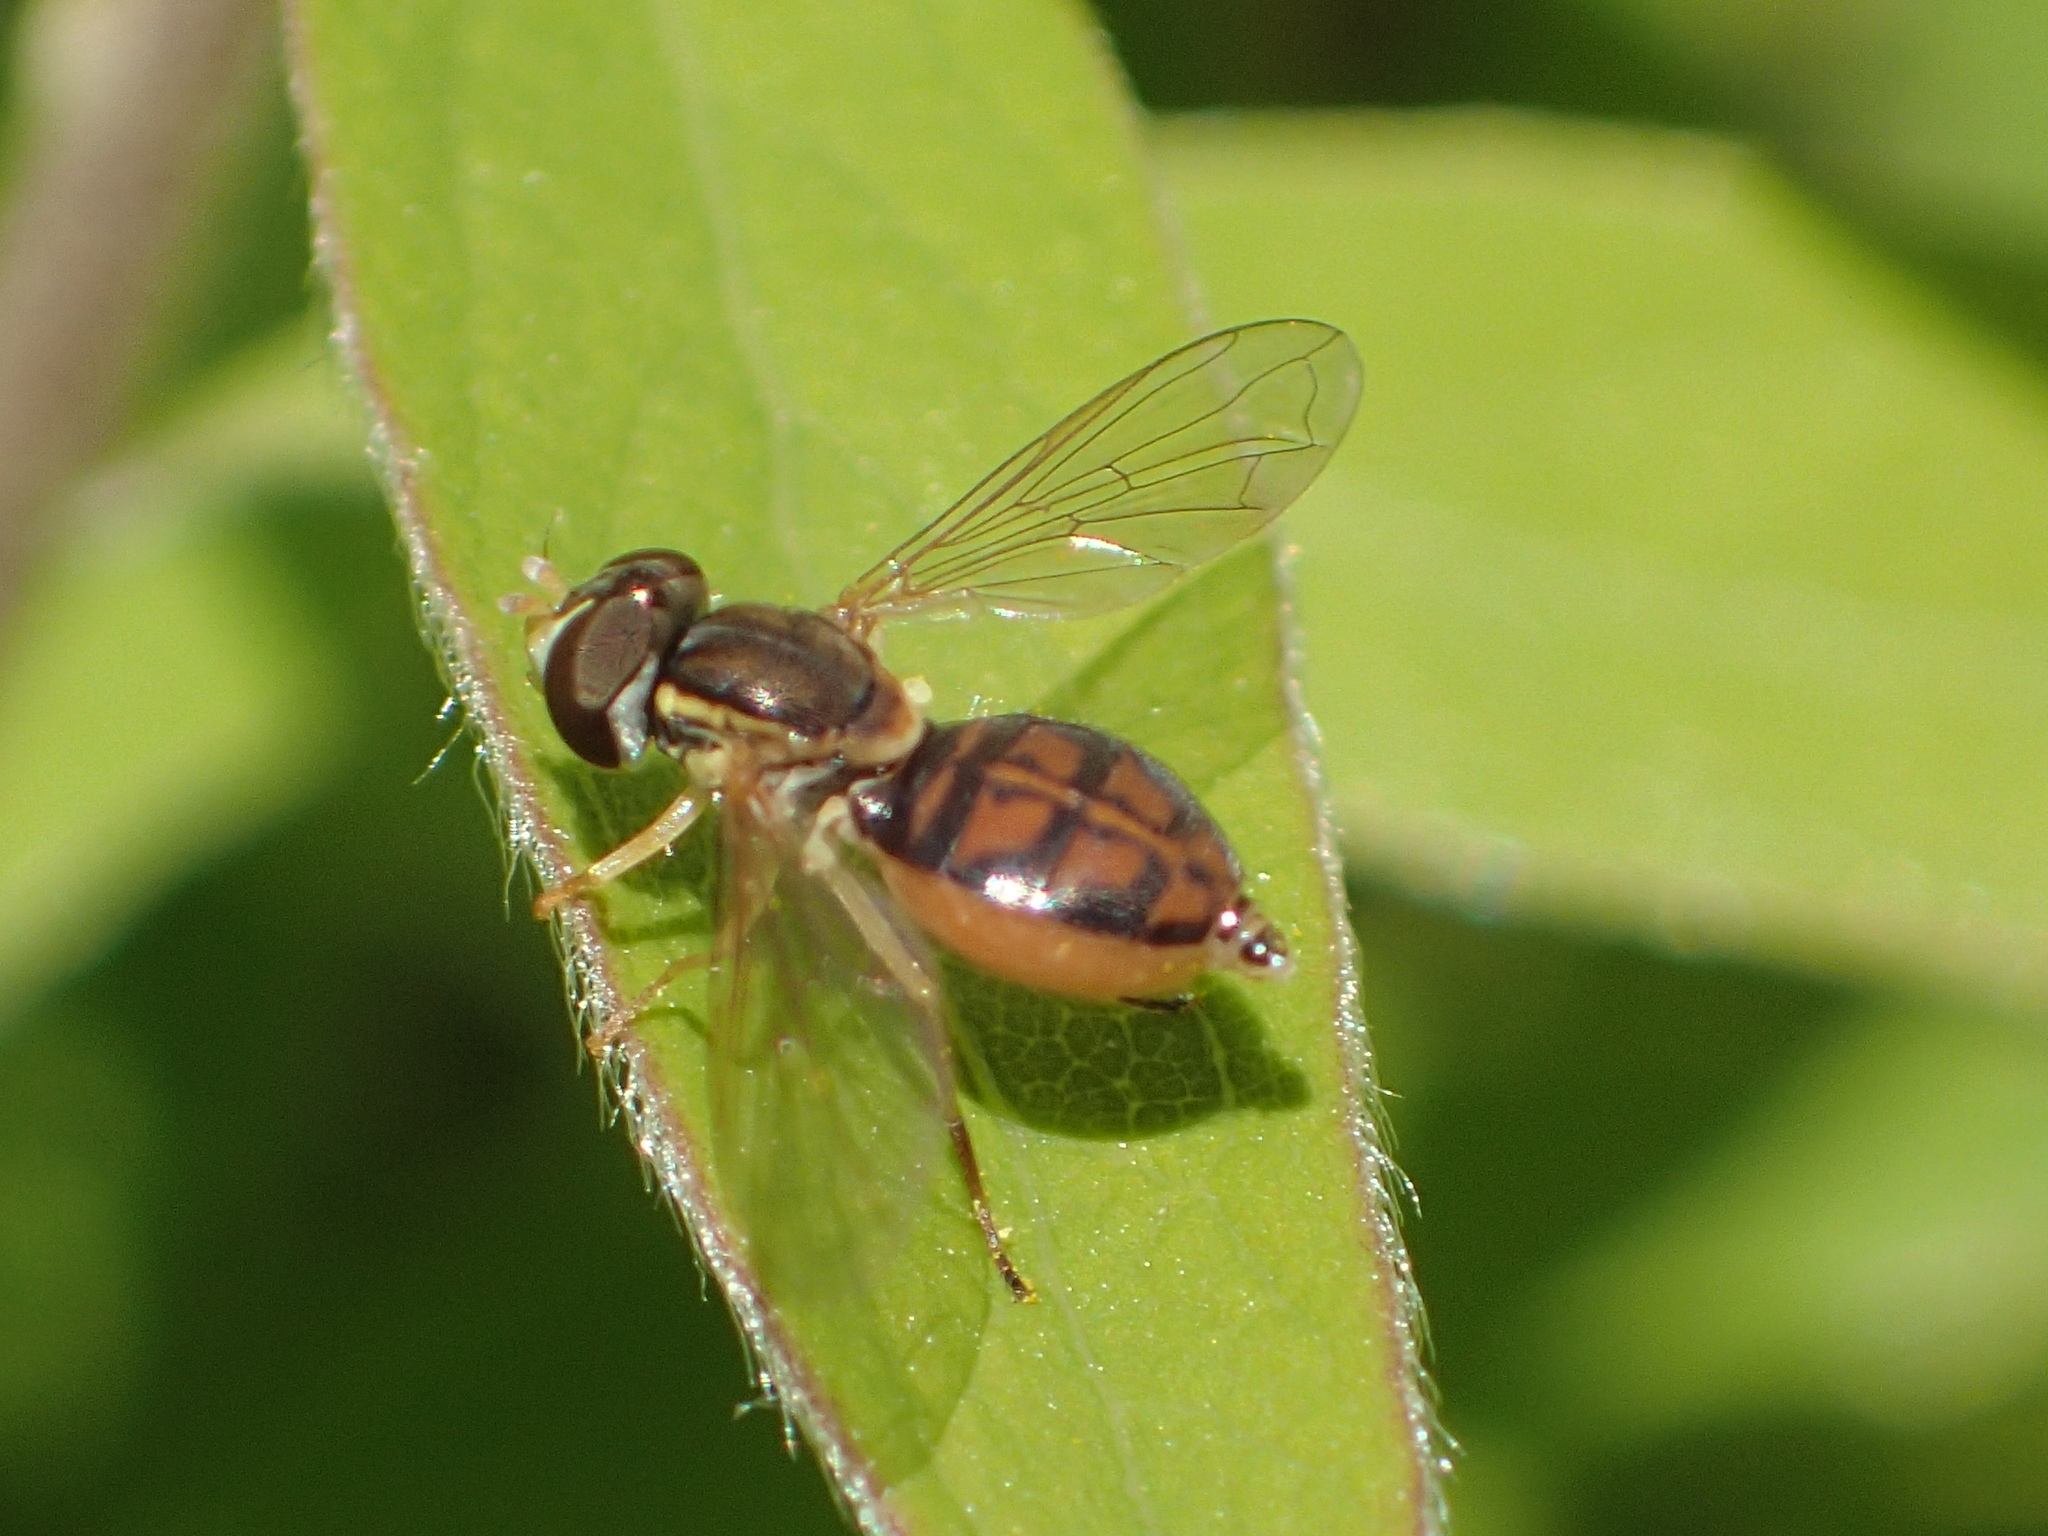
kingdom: Animalia
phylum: Arthropoda
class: Insecta
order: Diptera
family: Syrphidae
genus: Toxomerus
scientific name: Toxomerus marginatus
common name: Syrphid fly
